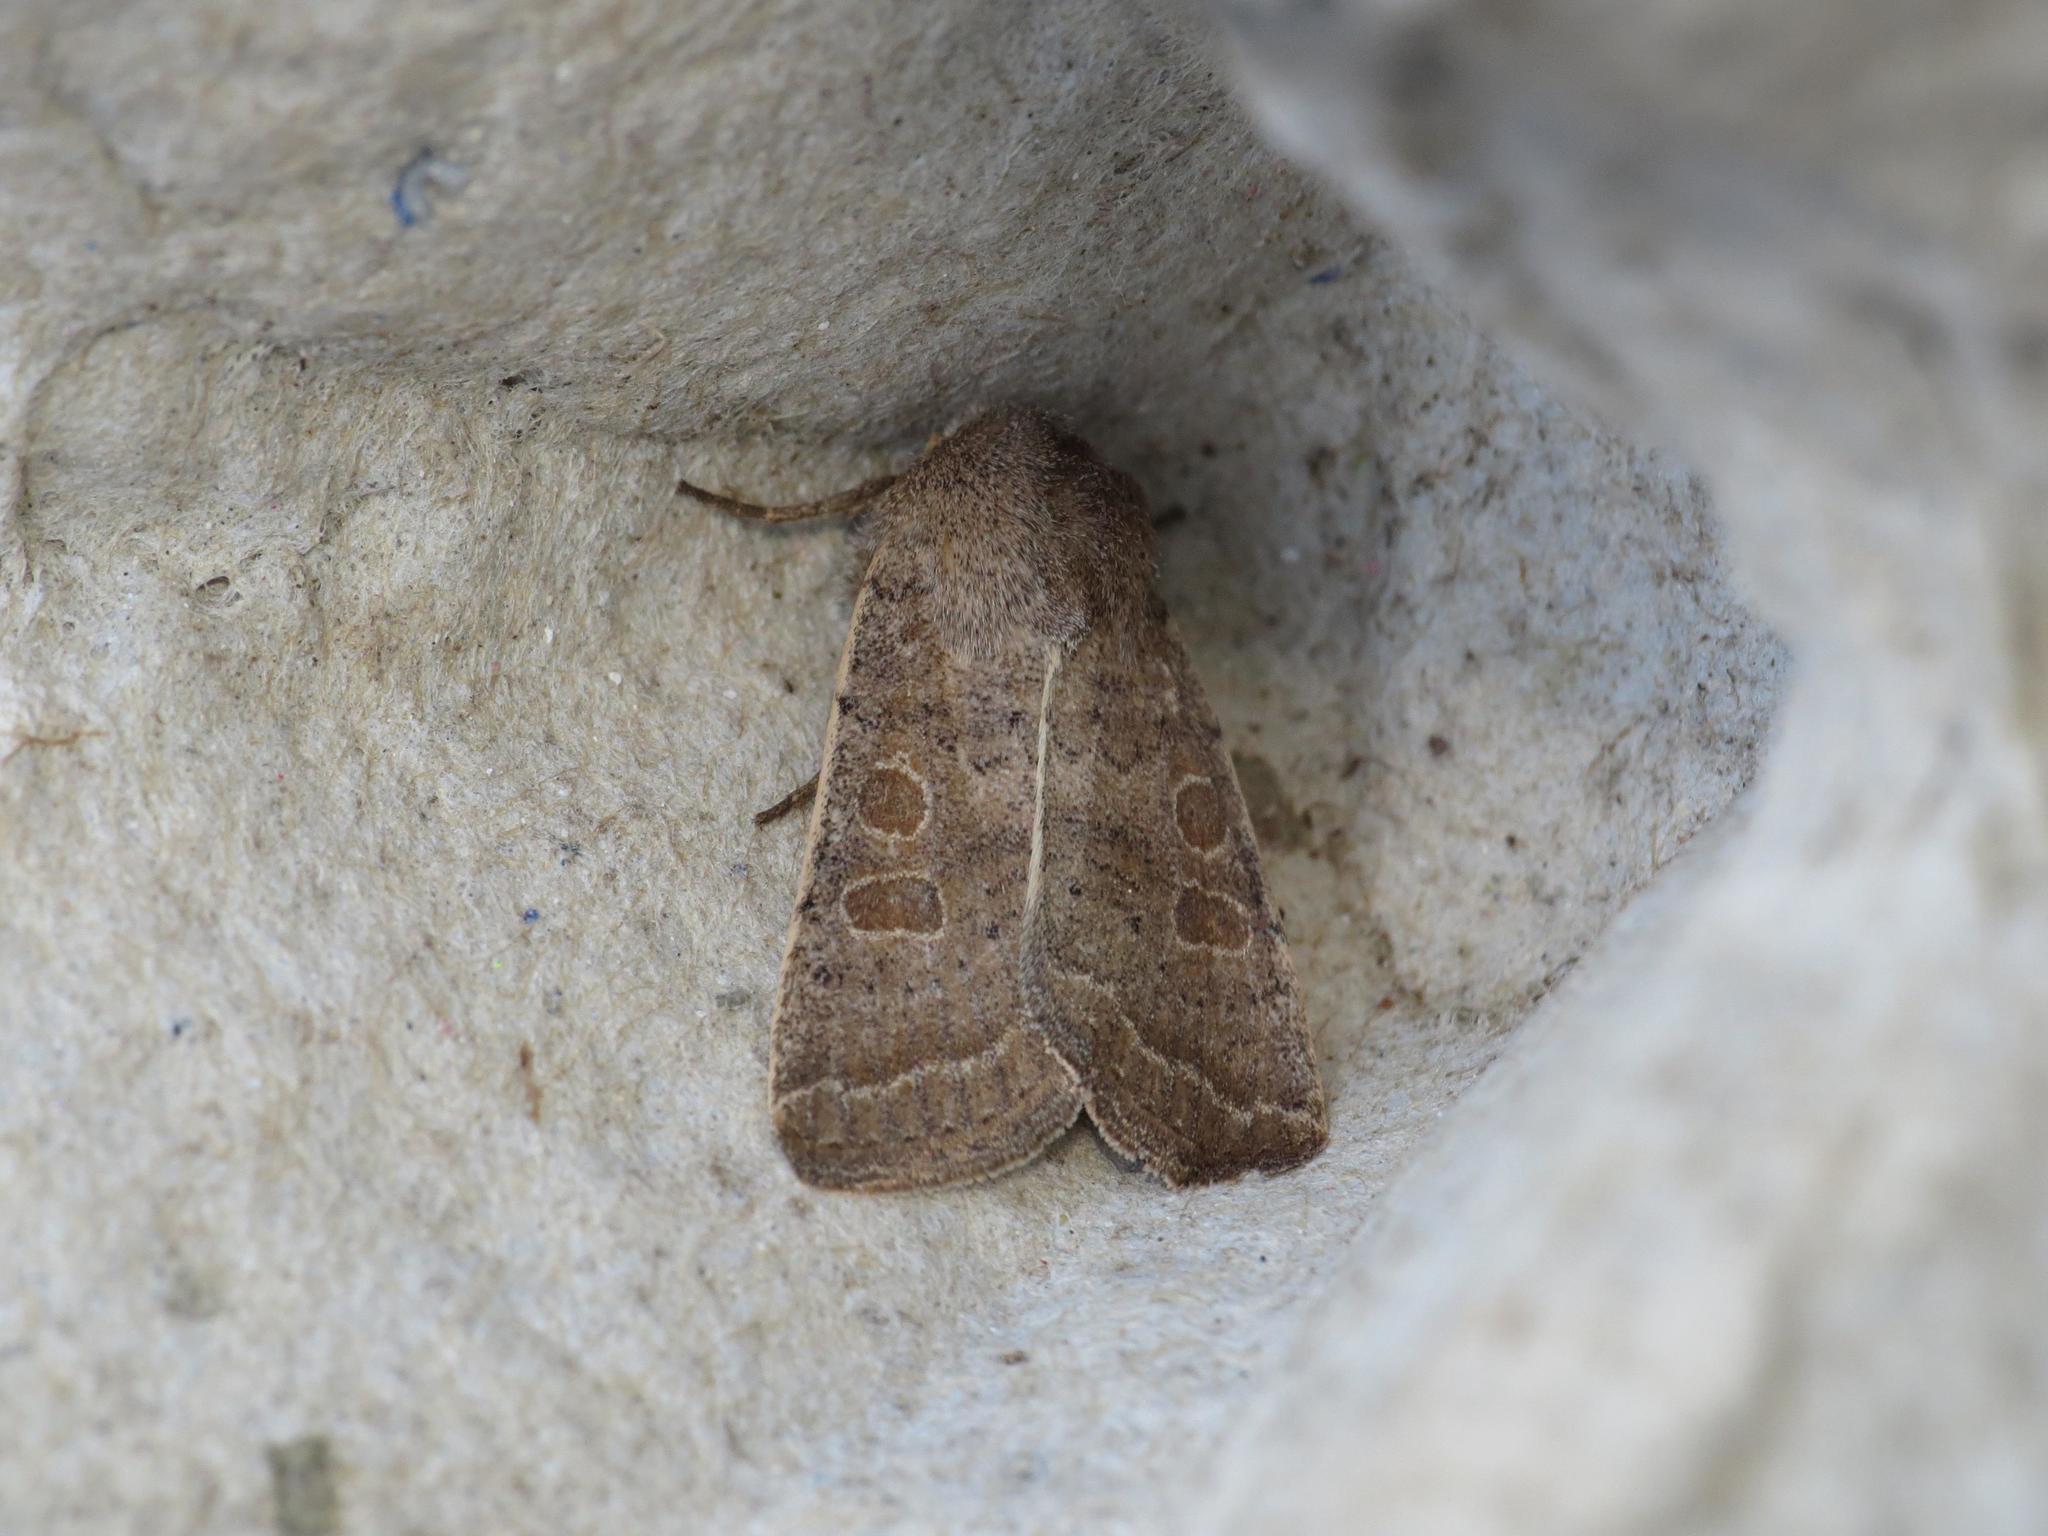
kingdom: Animalia
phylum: Arthropoda
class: Insecta
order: Lepidoptera
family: Noctuidae
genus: Hoplodrina
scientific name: Hoplodrina ambigua
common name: Vine's rustic
